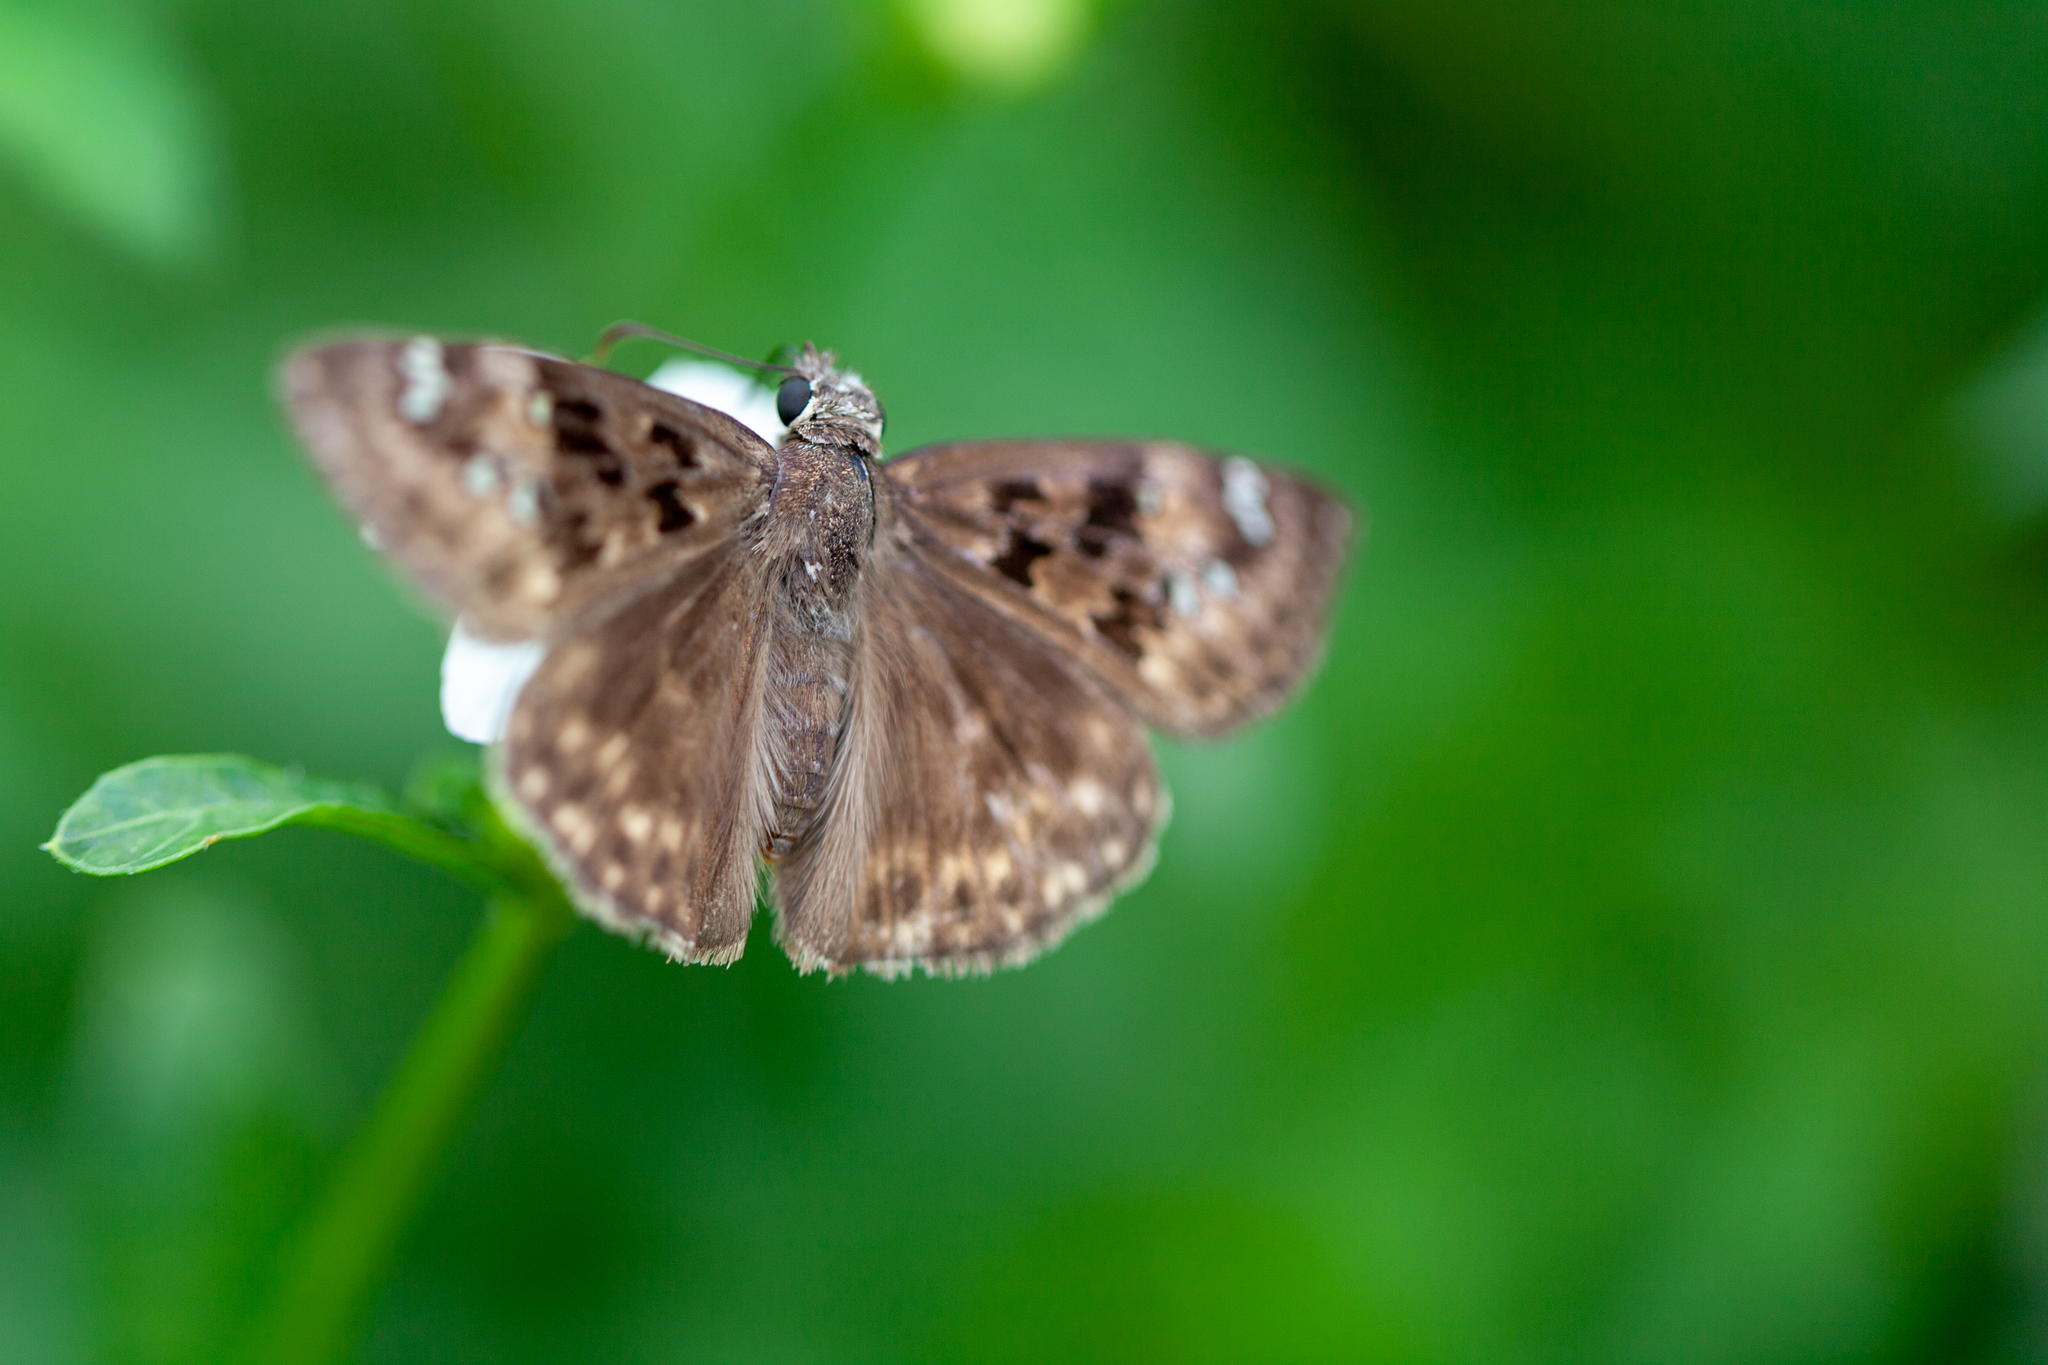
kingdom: Animalia
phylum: Arthropoda
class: Insecta
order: Lepidoptera
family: Hesperiidae
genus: Erynnis
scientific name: Erynnis horatius
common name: Horace's duskywing
